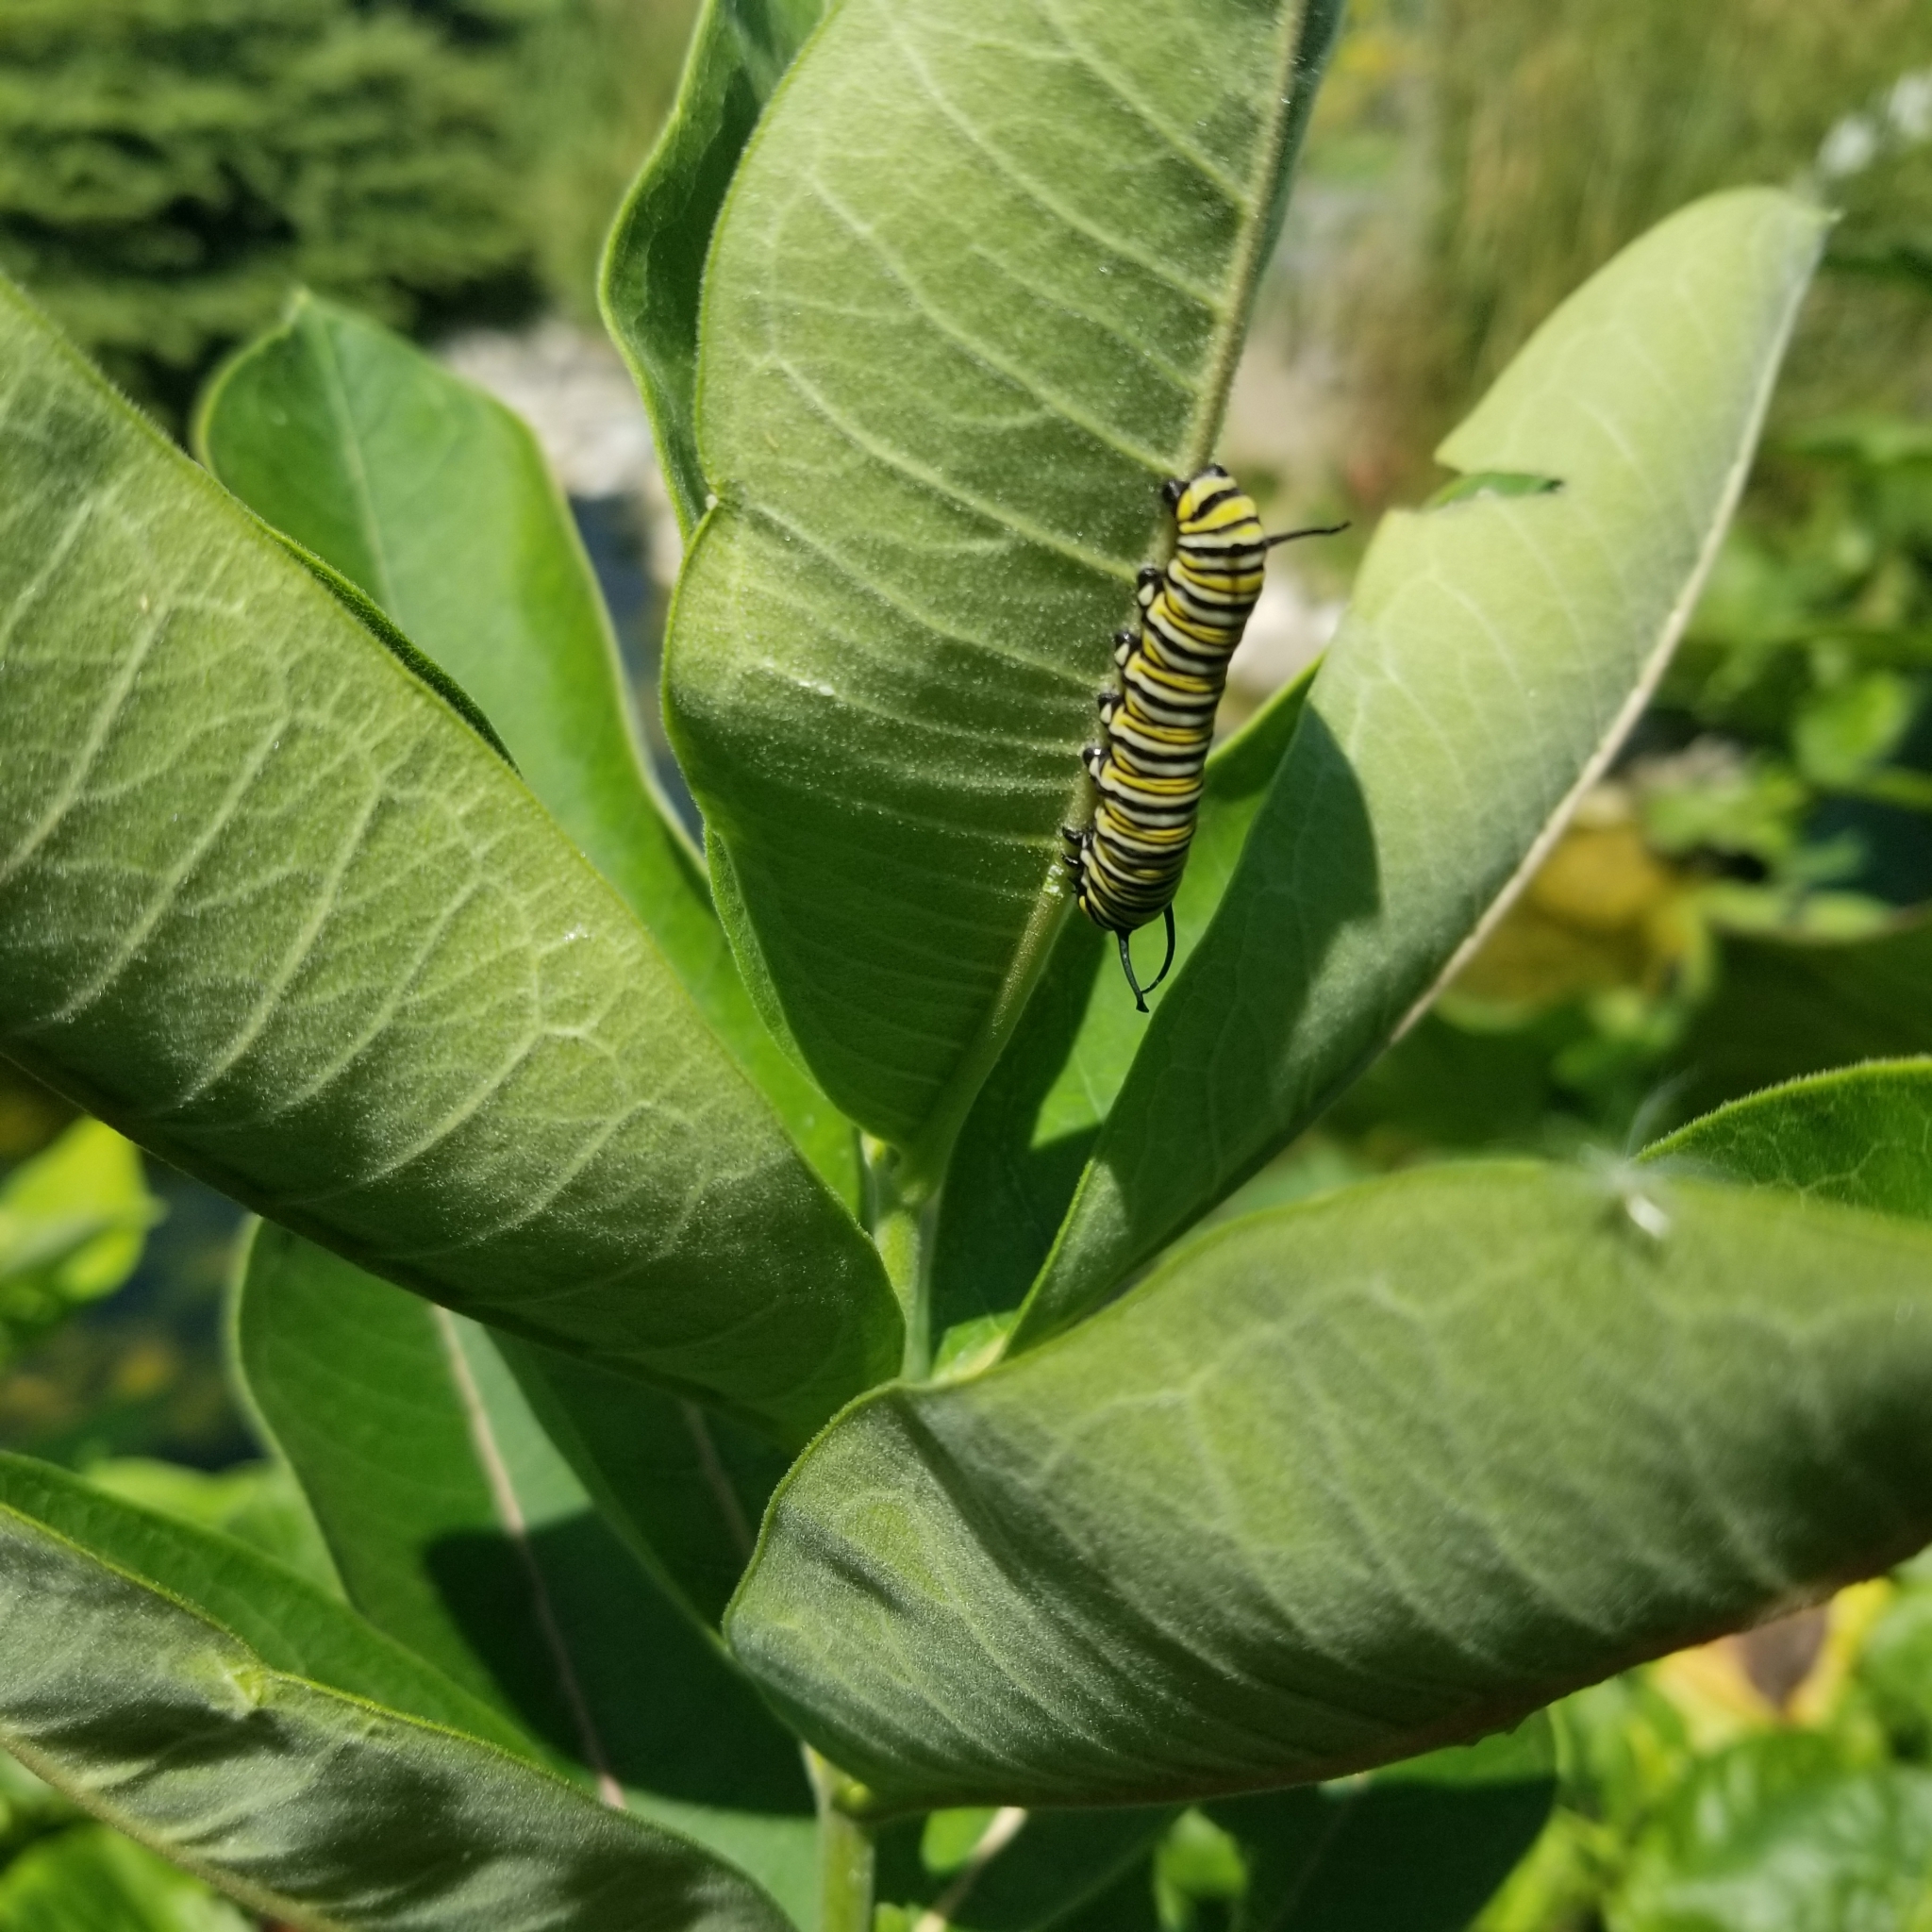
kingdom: Animalia
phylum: Arthropoda
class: Insecta
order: Lepidoptera
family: Nymphalidae
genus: Danaus
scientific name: Danaus plexippus
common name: Monarch
